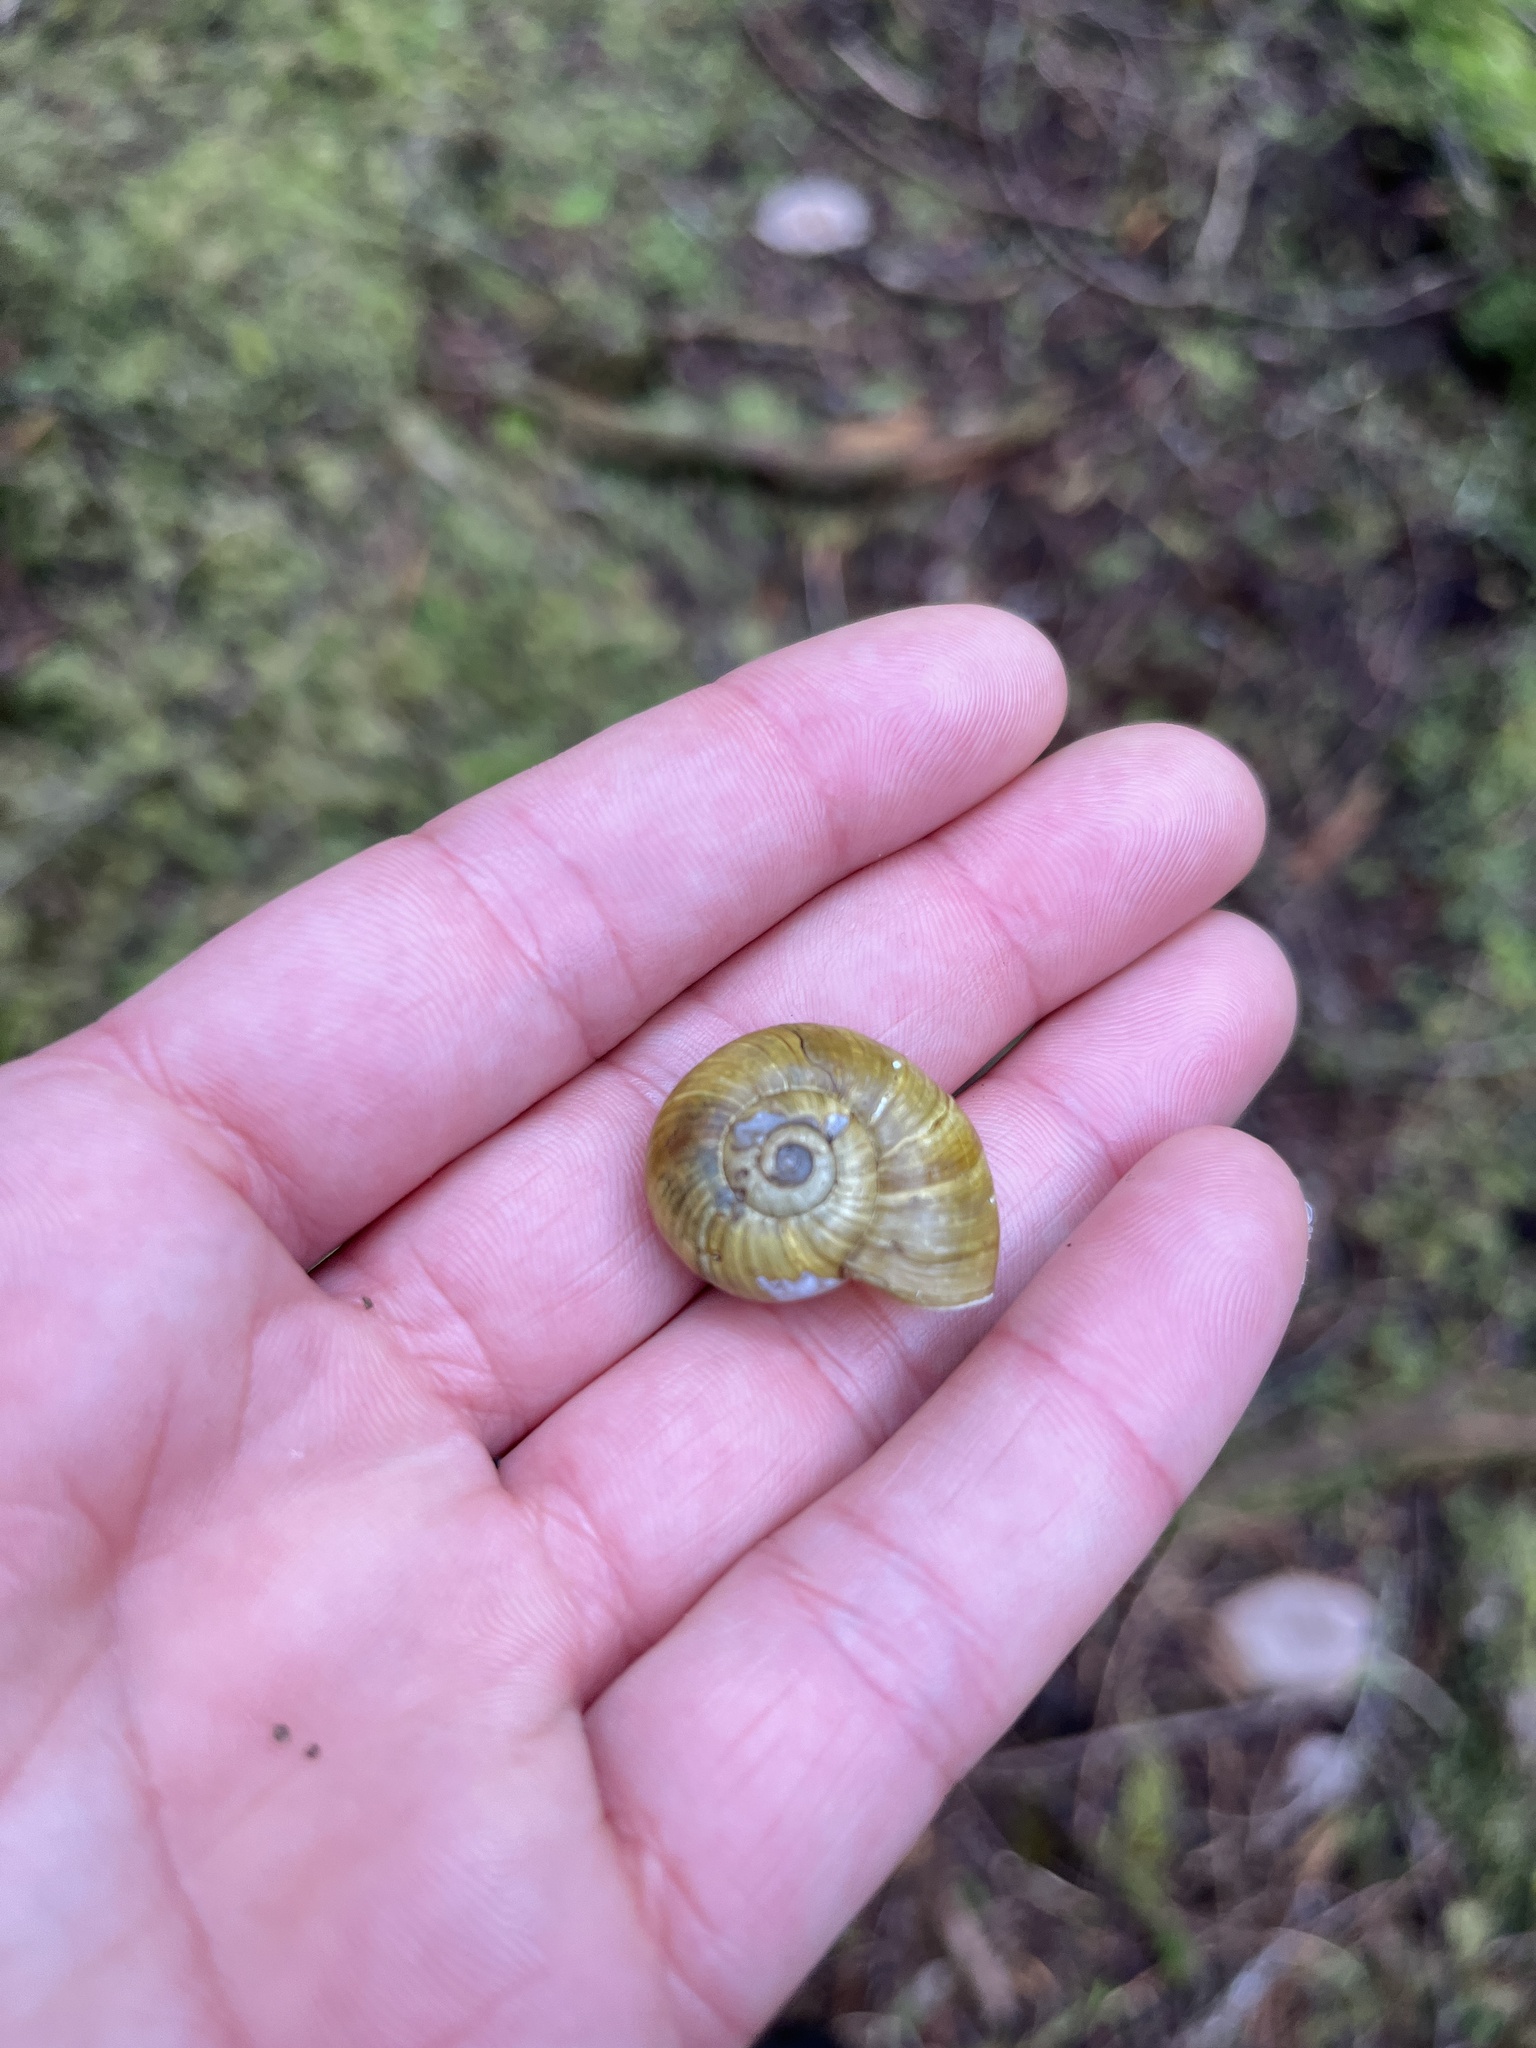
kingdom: Animalia
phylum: Mollusca
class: Gastropoda
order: Stylommatophora
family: Haplotrematidae
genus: Haplotrema
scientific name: Haplotrema vancouverense
